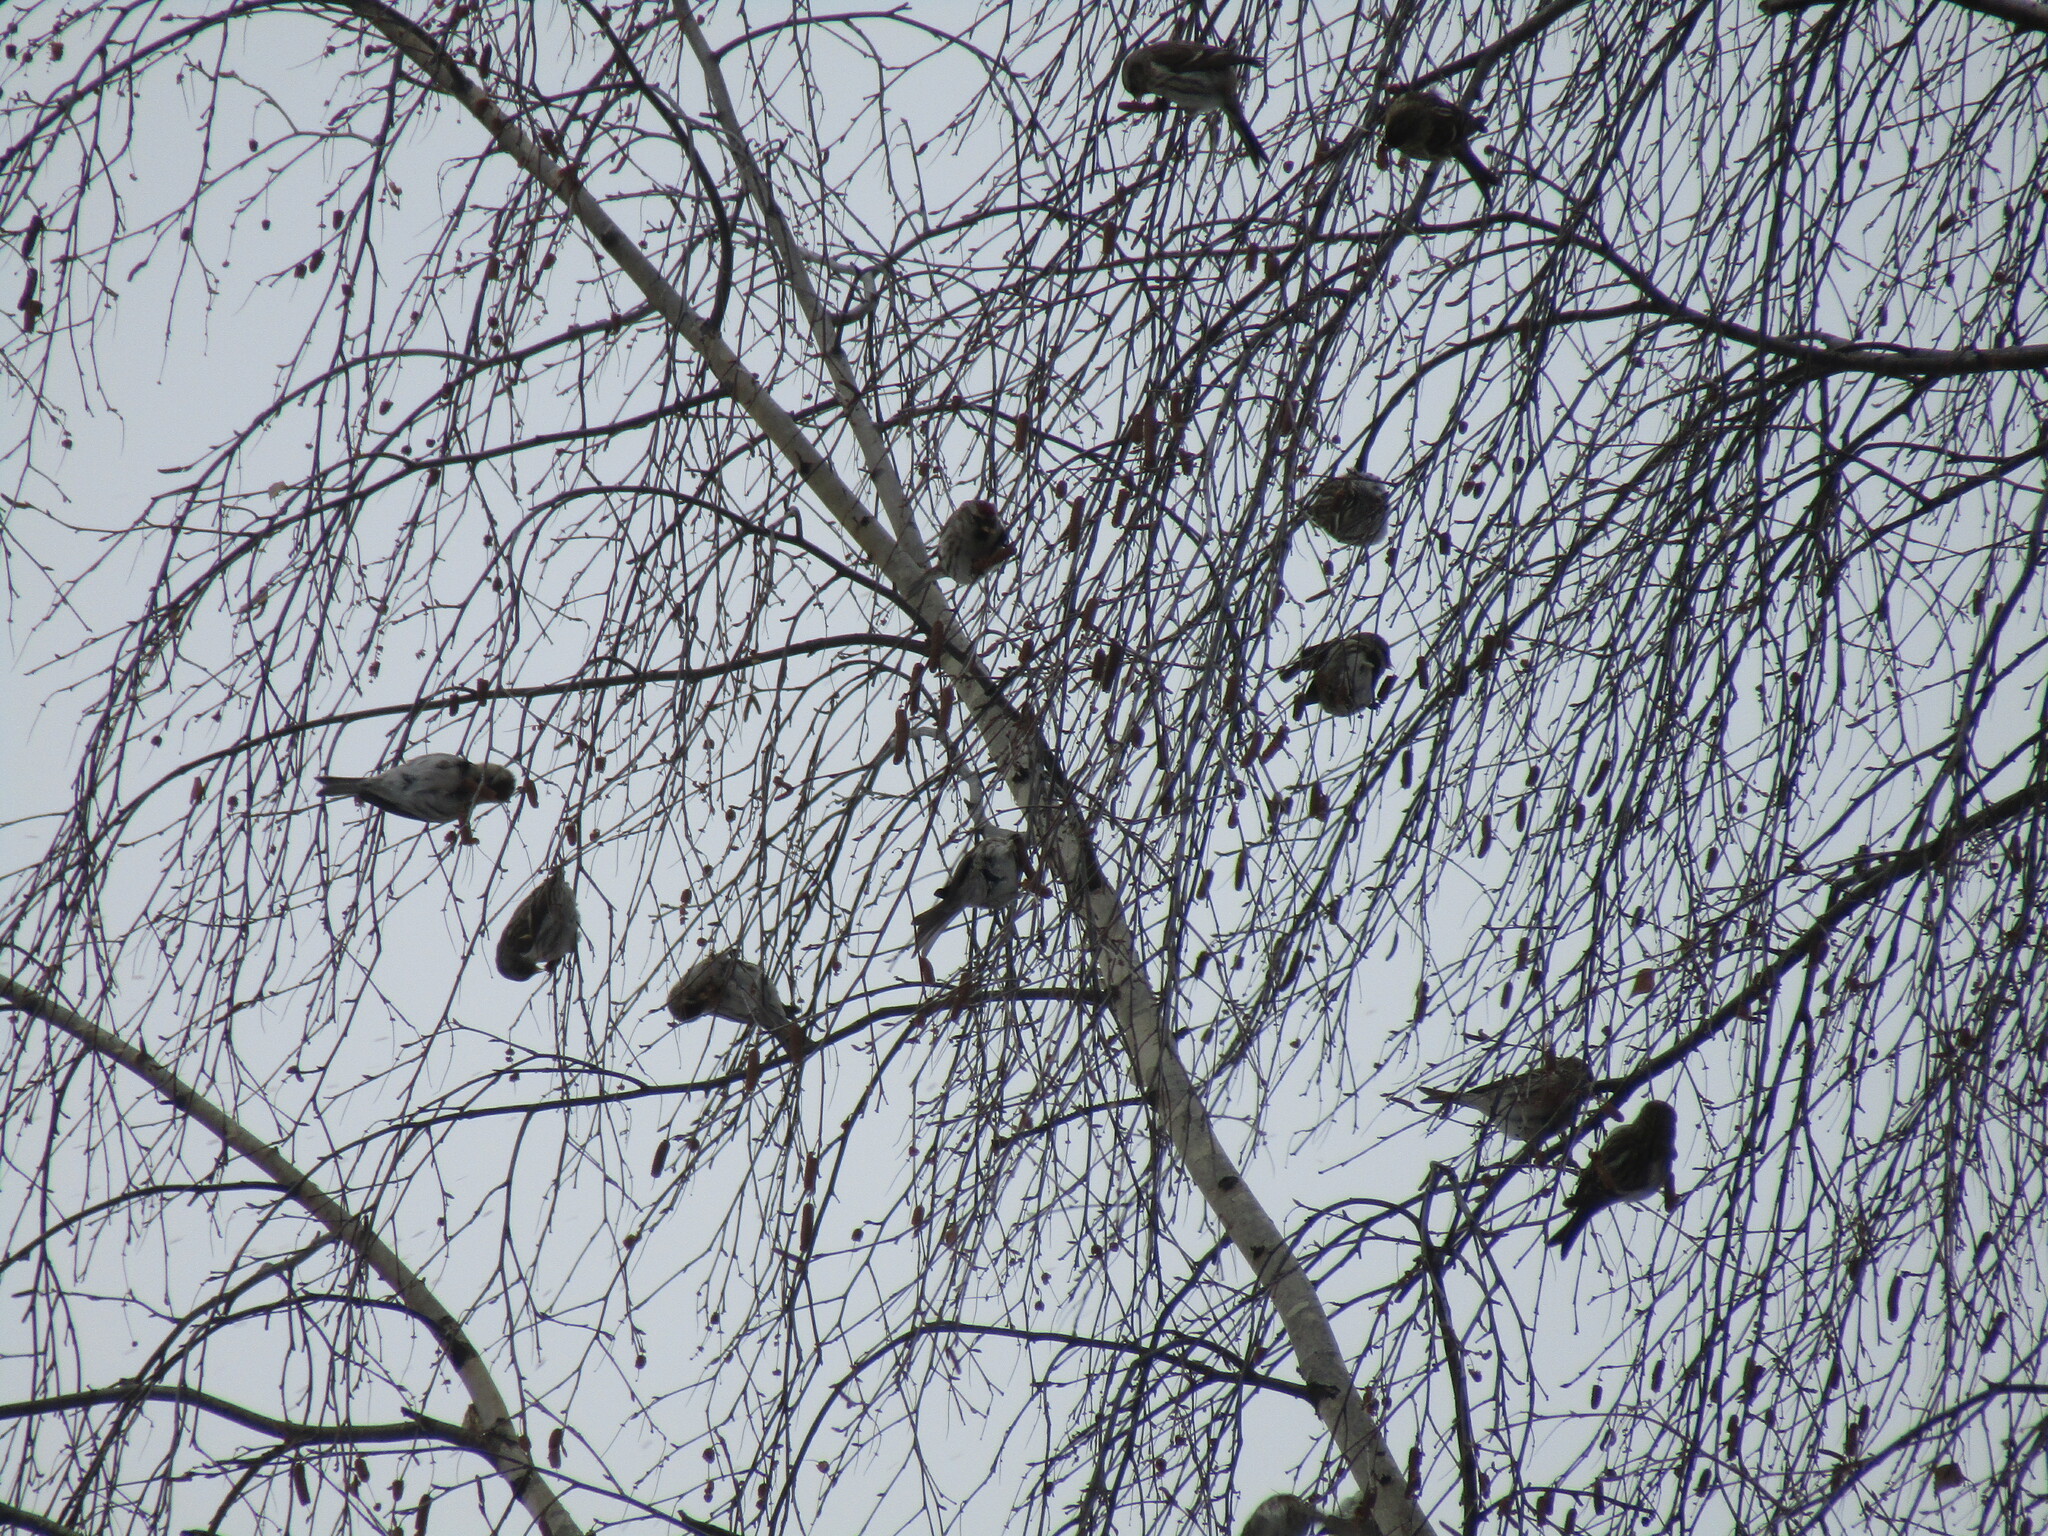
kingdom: Animalia
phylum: Chordata
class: Aves
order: Passeriformes
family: Fringillidae
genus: Acanthis
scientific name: Acanthis flammea
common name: Common redpoll
